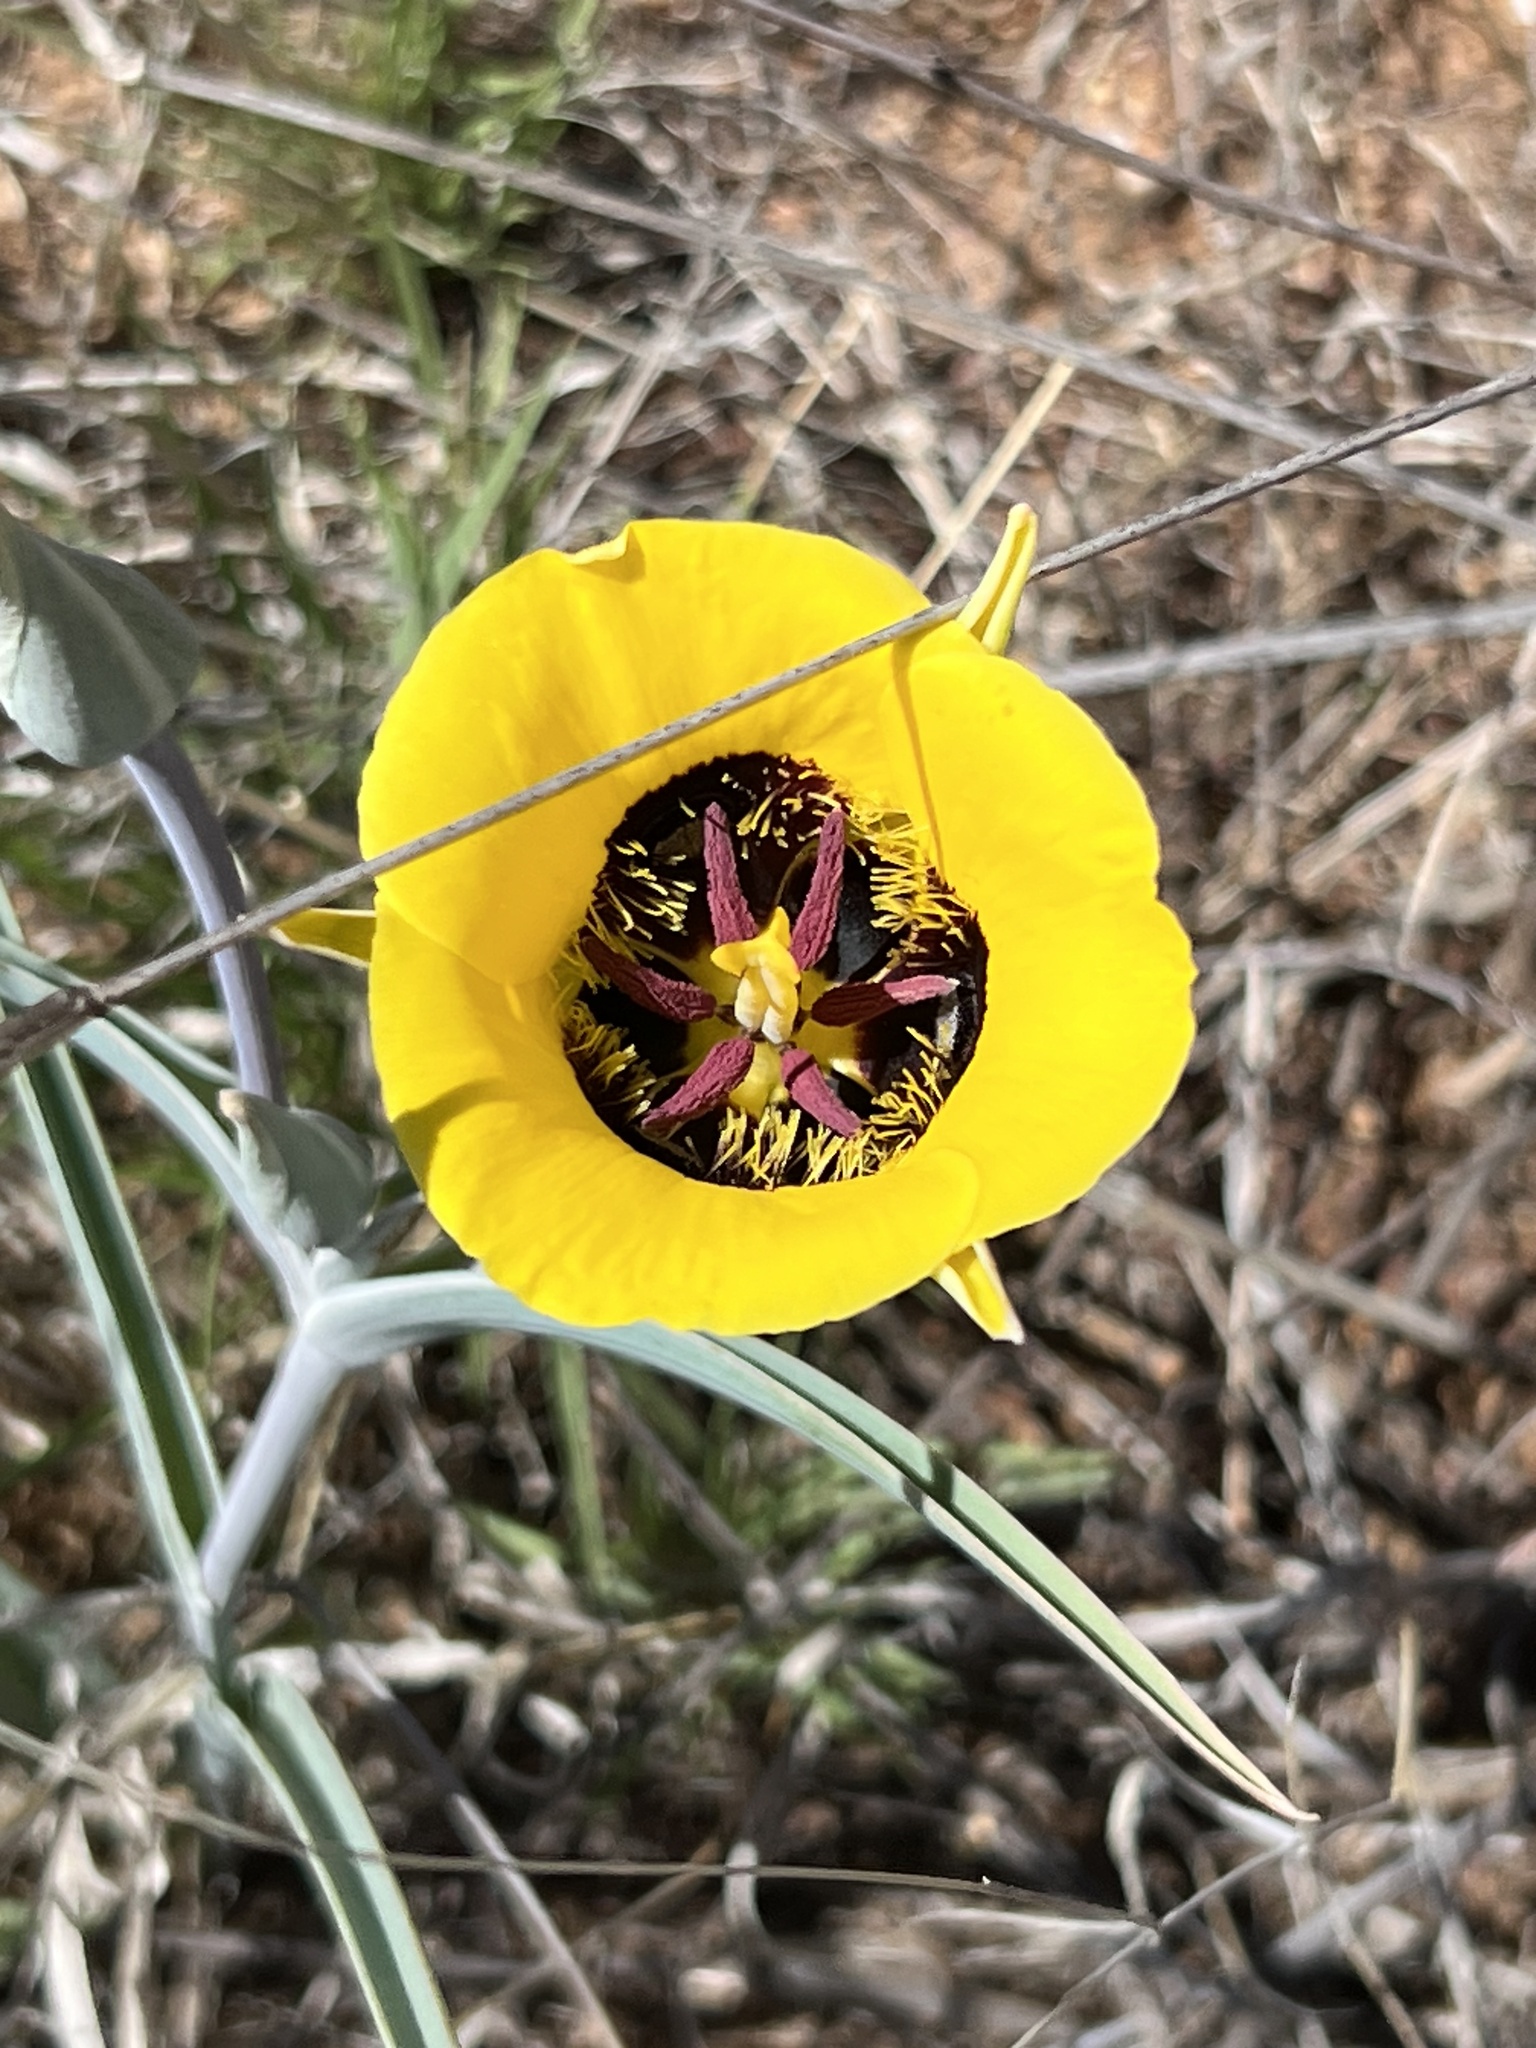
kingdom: Plantae
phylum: Tracheophyta
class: Liliopsida
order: Liliales
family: Liliaceae
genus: Calochortus
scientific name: Calochortus kennedyi
